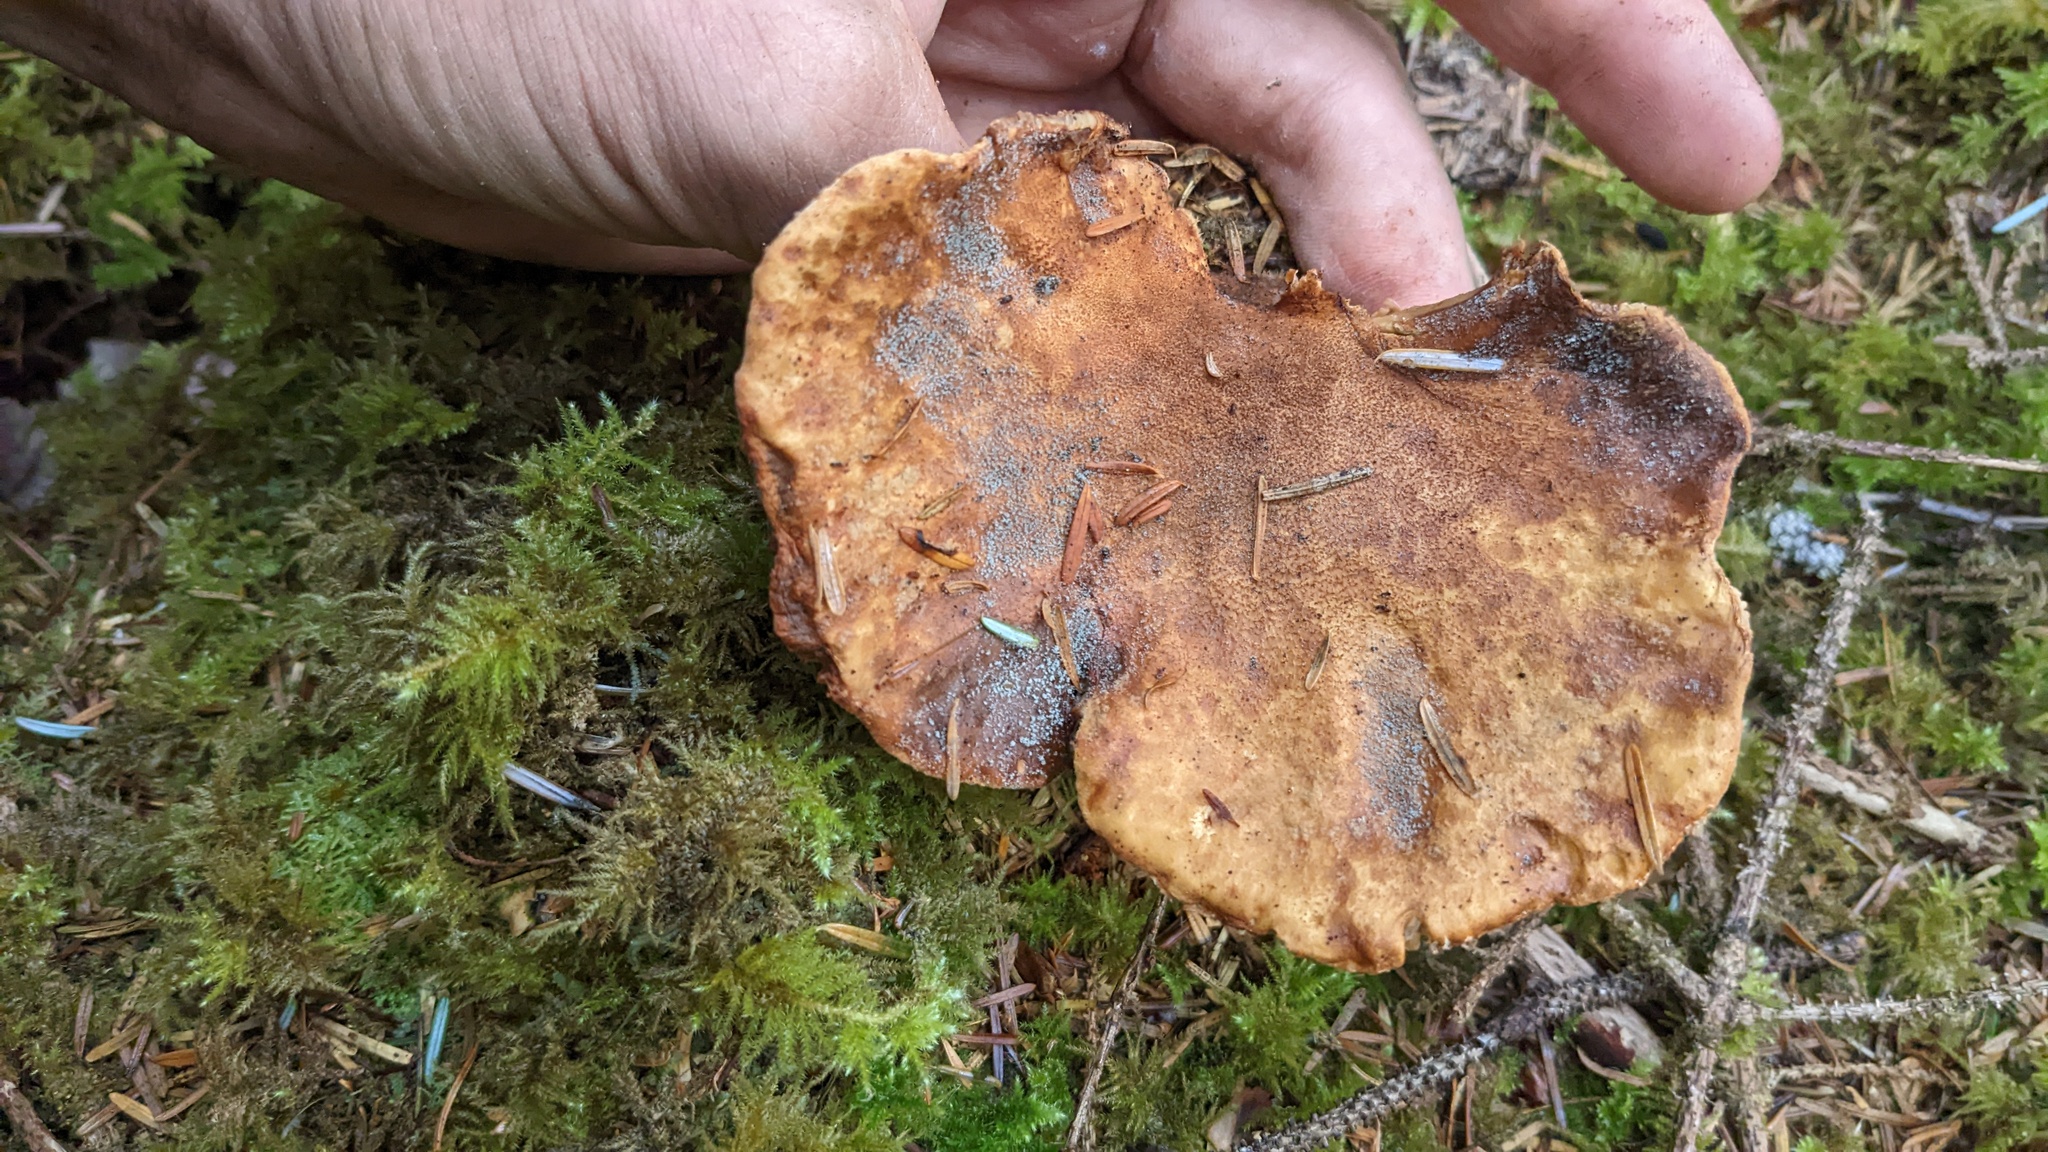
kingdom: Fungi
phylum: Basidiomycota
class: Agaricomycetes
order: Boletales
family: Tapinellaceae
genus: Tapinella
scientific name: Tapinella atrotomentosa
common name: Velvet rollrim
